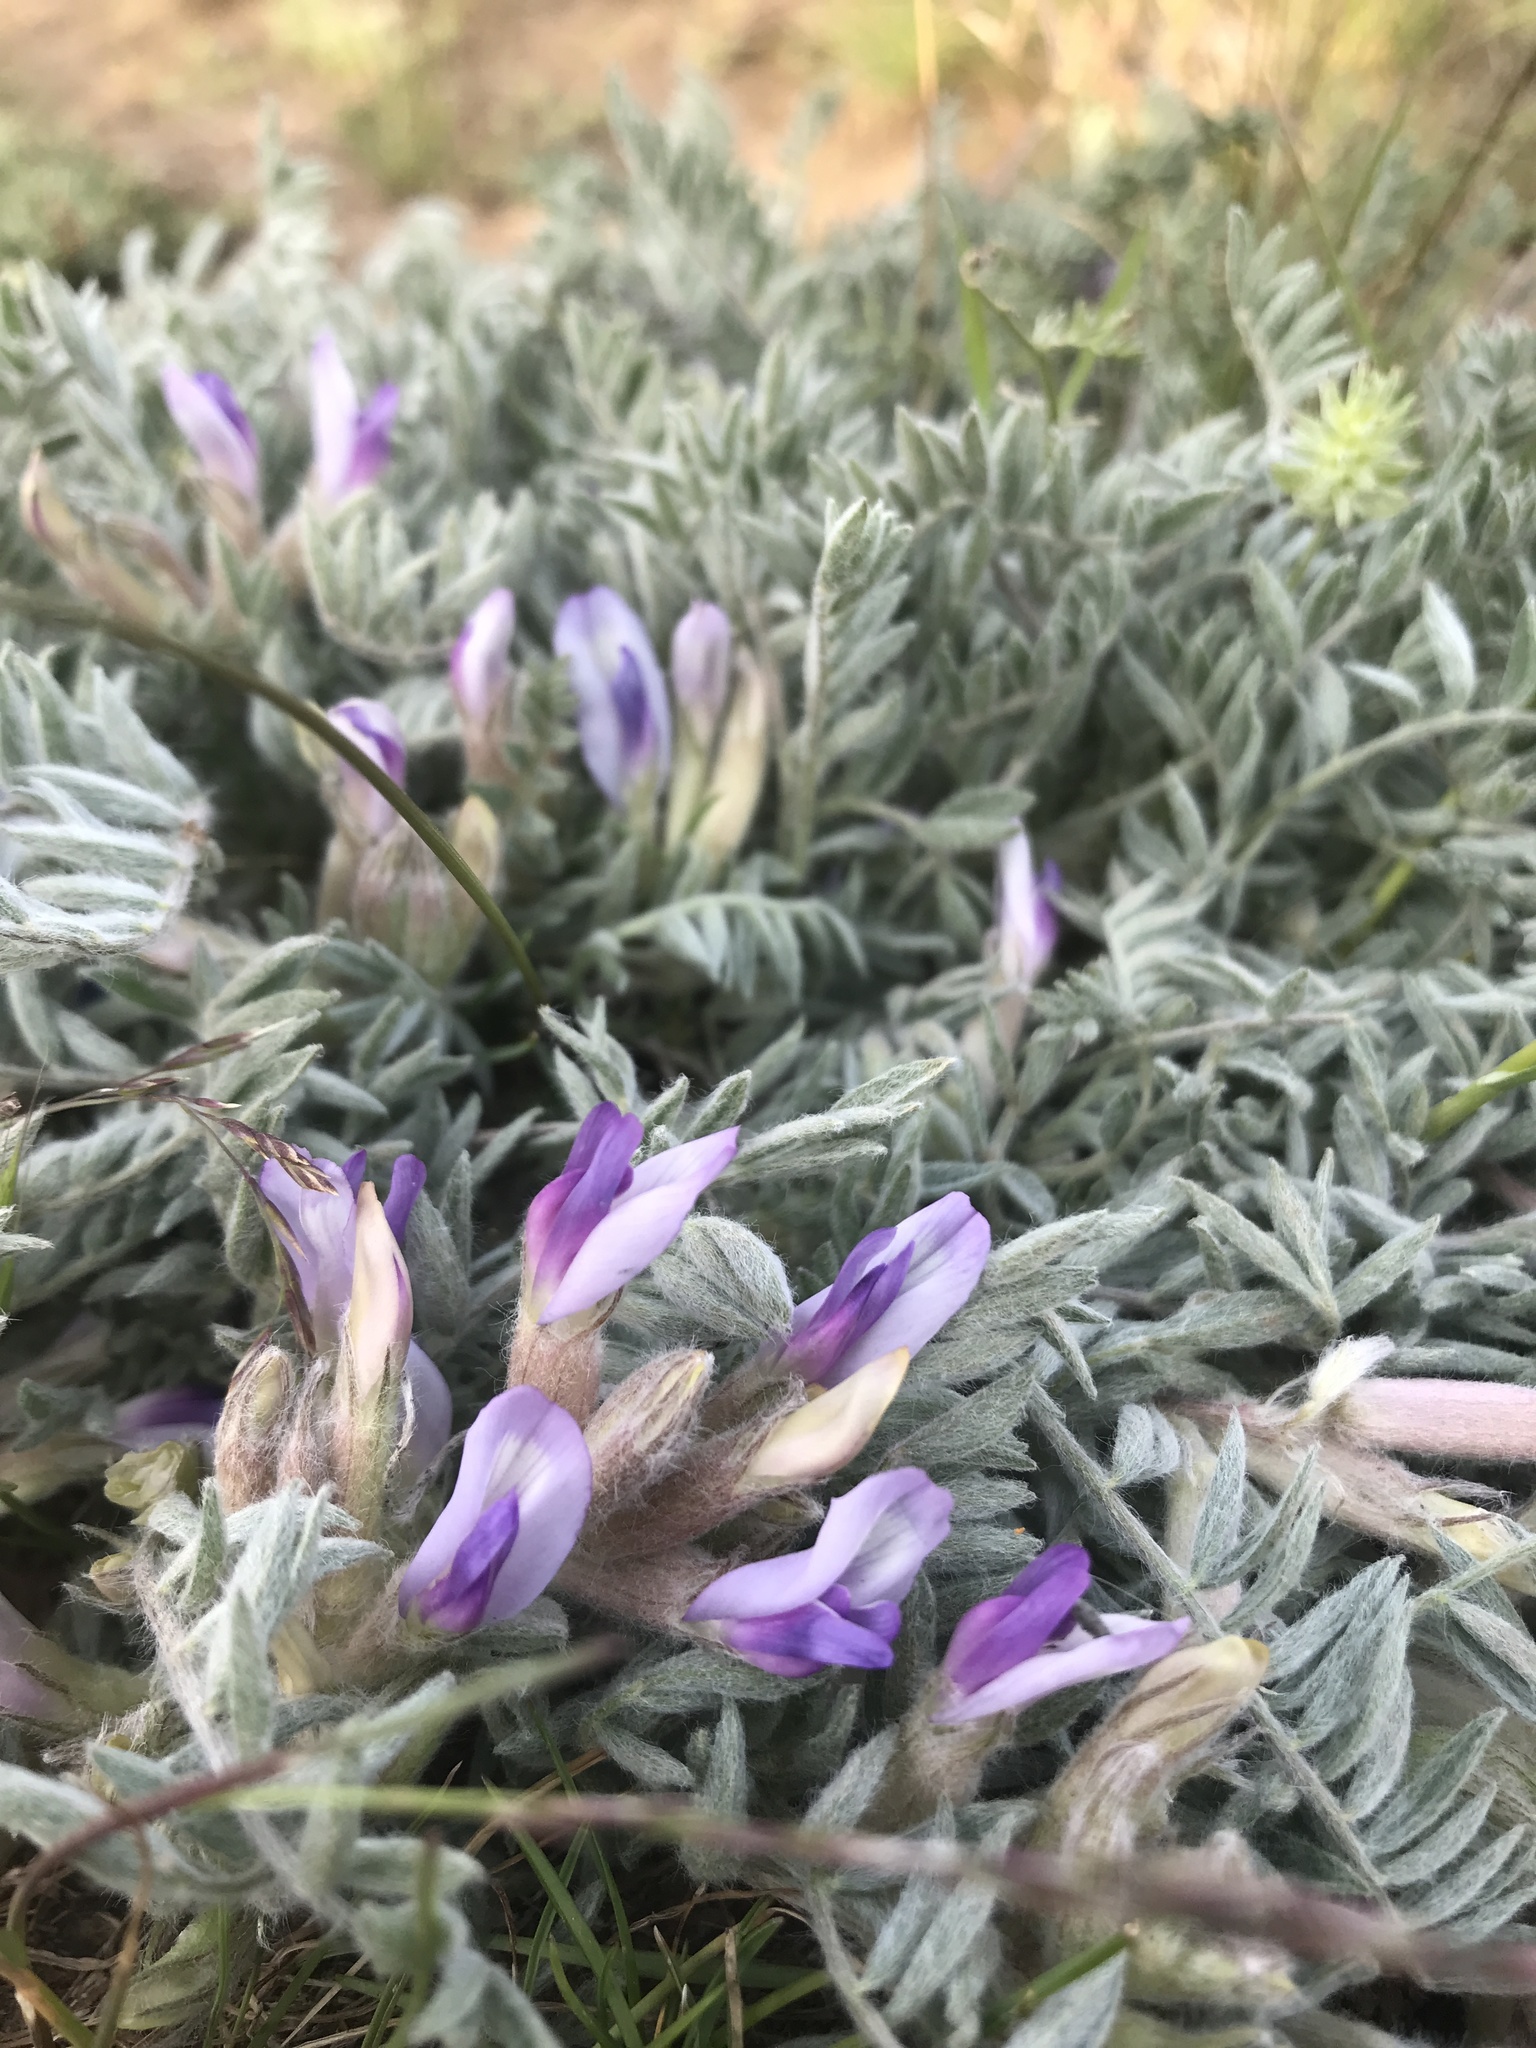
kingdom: Plantae
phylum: Tracheophyta
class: Magnoliopsida
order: Fabales
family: Fabaceae
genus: Astragalus
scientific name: Astragalus purshii
